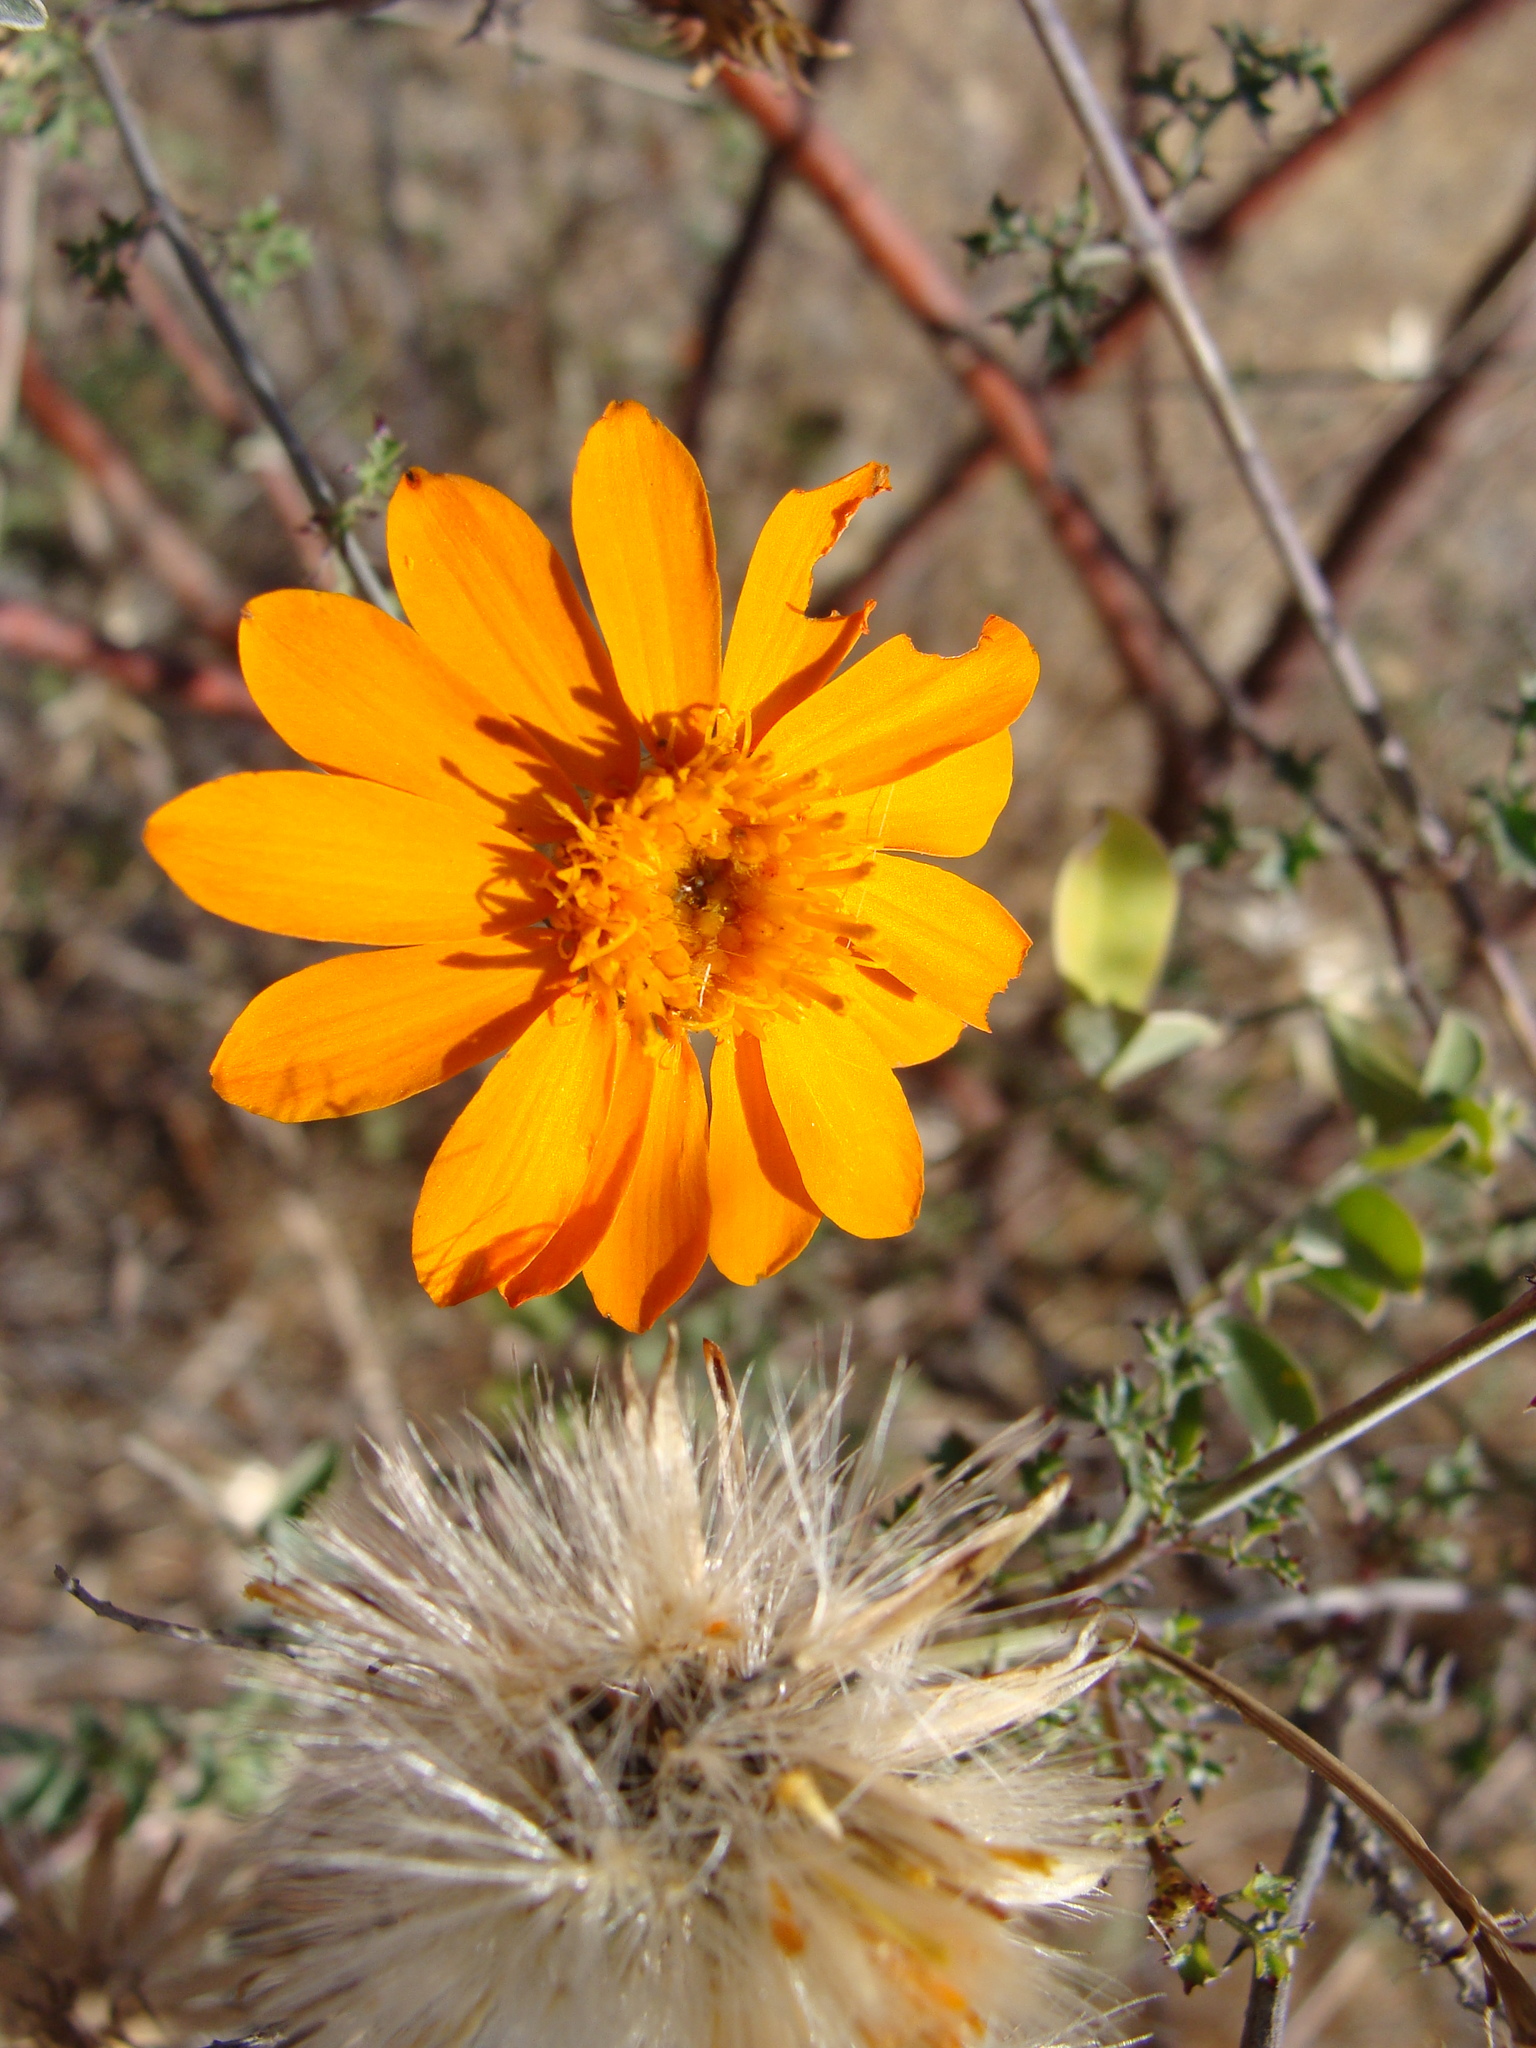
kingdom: Plantae
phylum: Tracheophyta
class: Magnoliopsida
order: Asterales
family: Asteraceae
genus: Adenophyllum
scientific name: Adenophyllum speciosum
